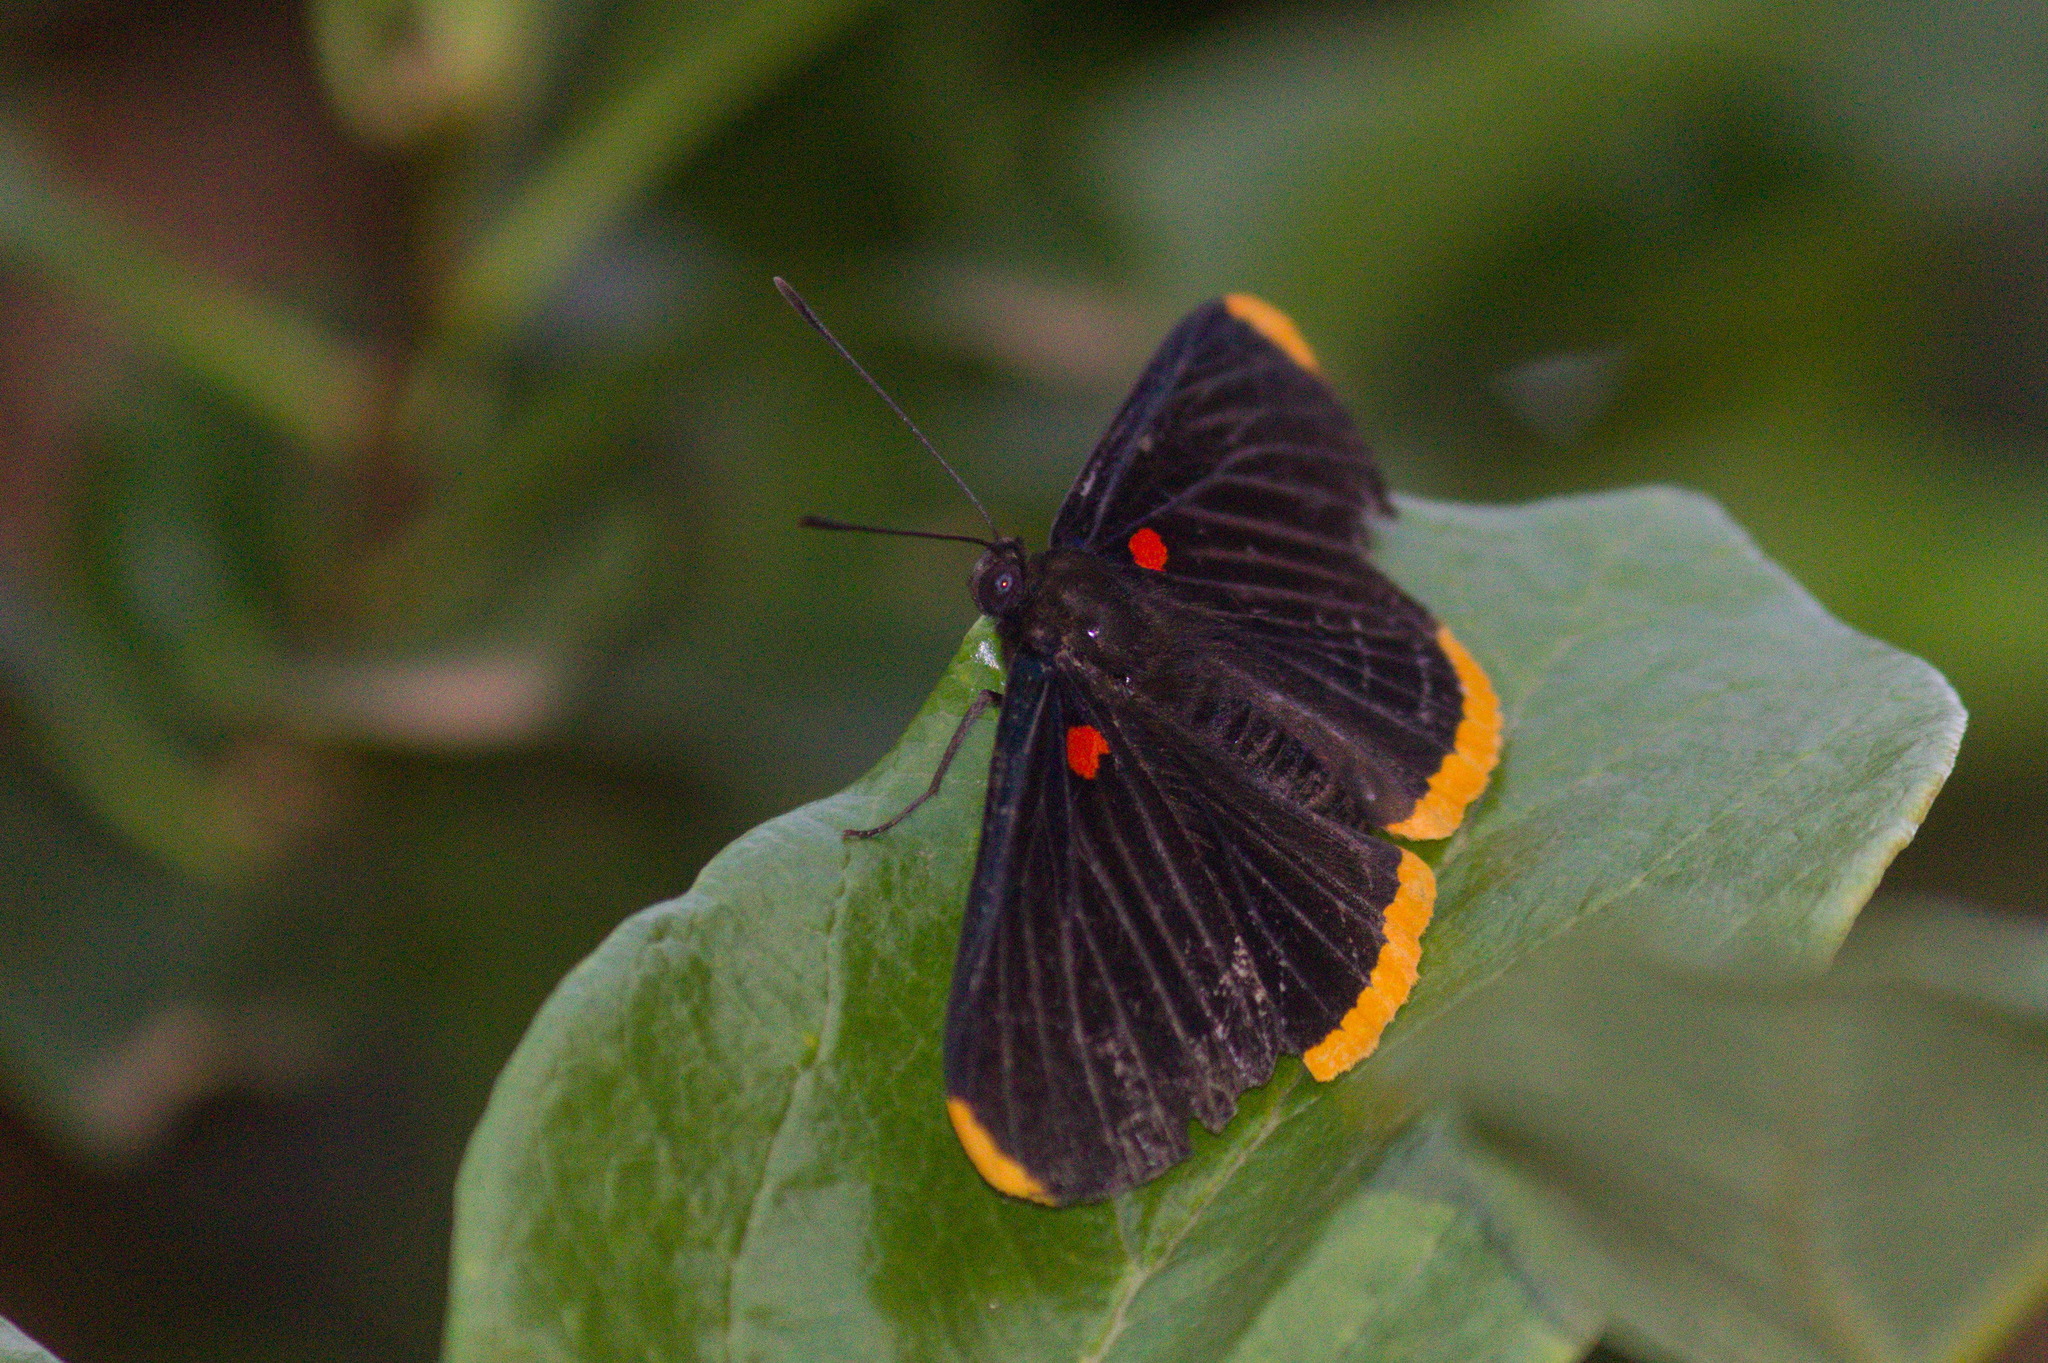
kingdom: Animalia
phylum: Arthropoda
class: Insecta
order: Lepidoptera
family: Lycaenidae
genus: Melanis
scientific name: Melanis smithiae
